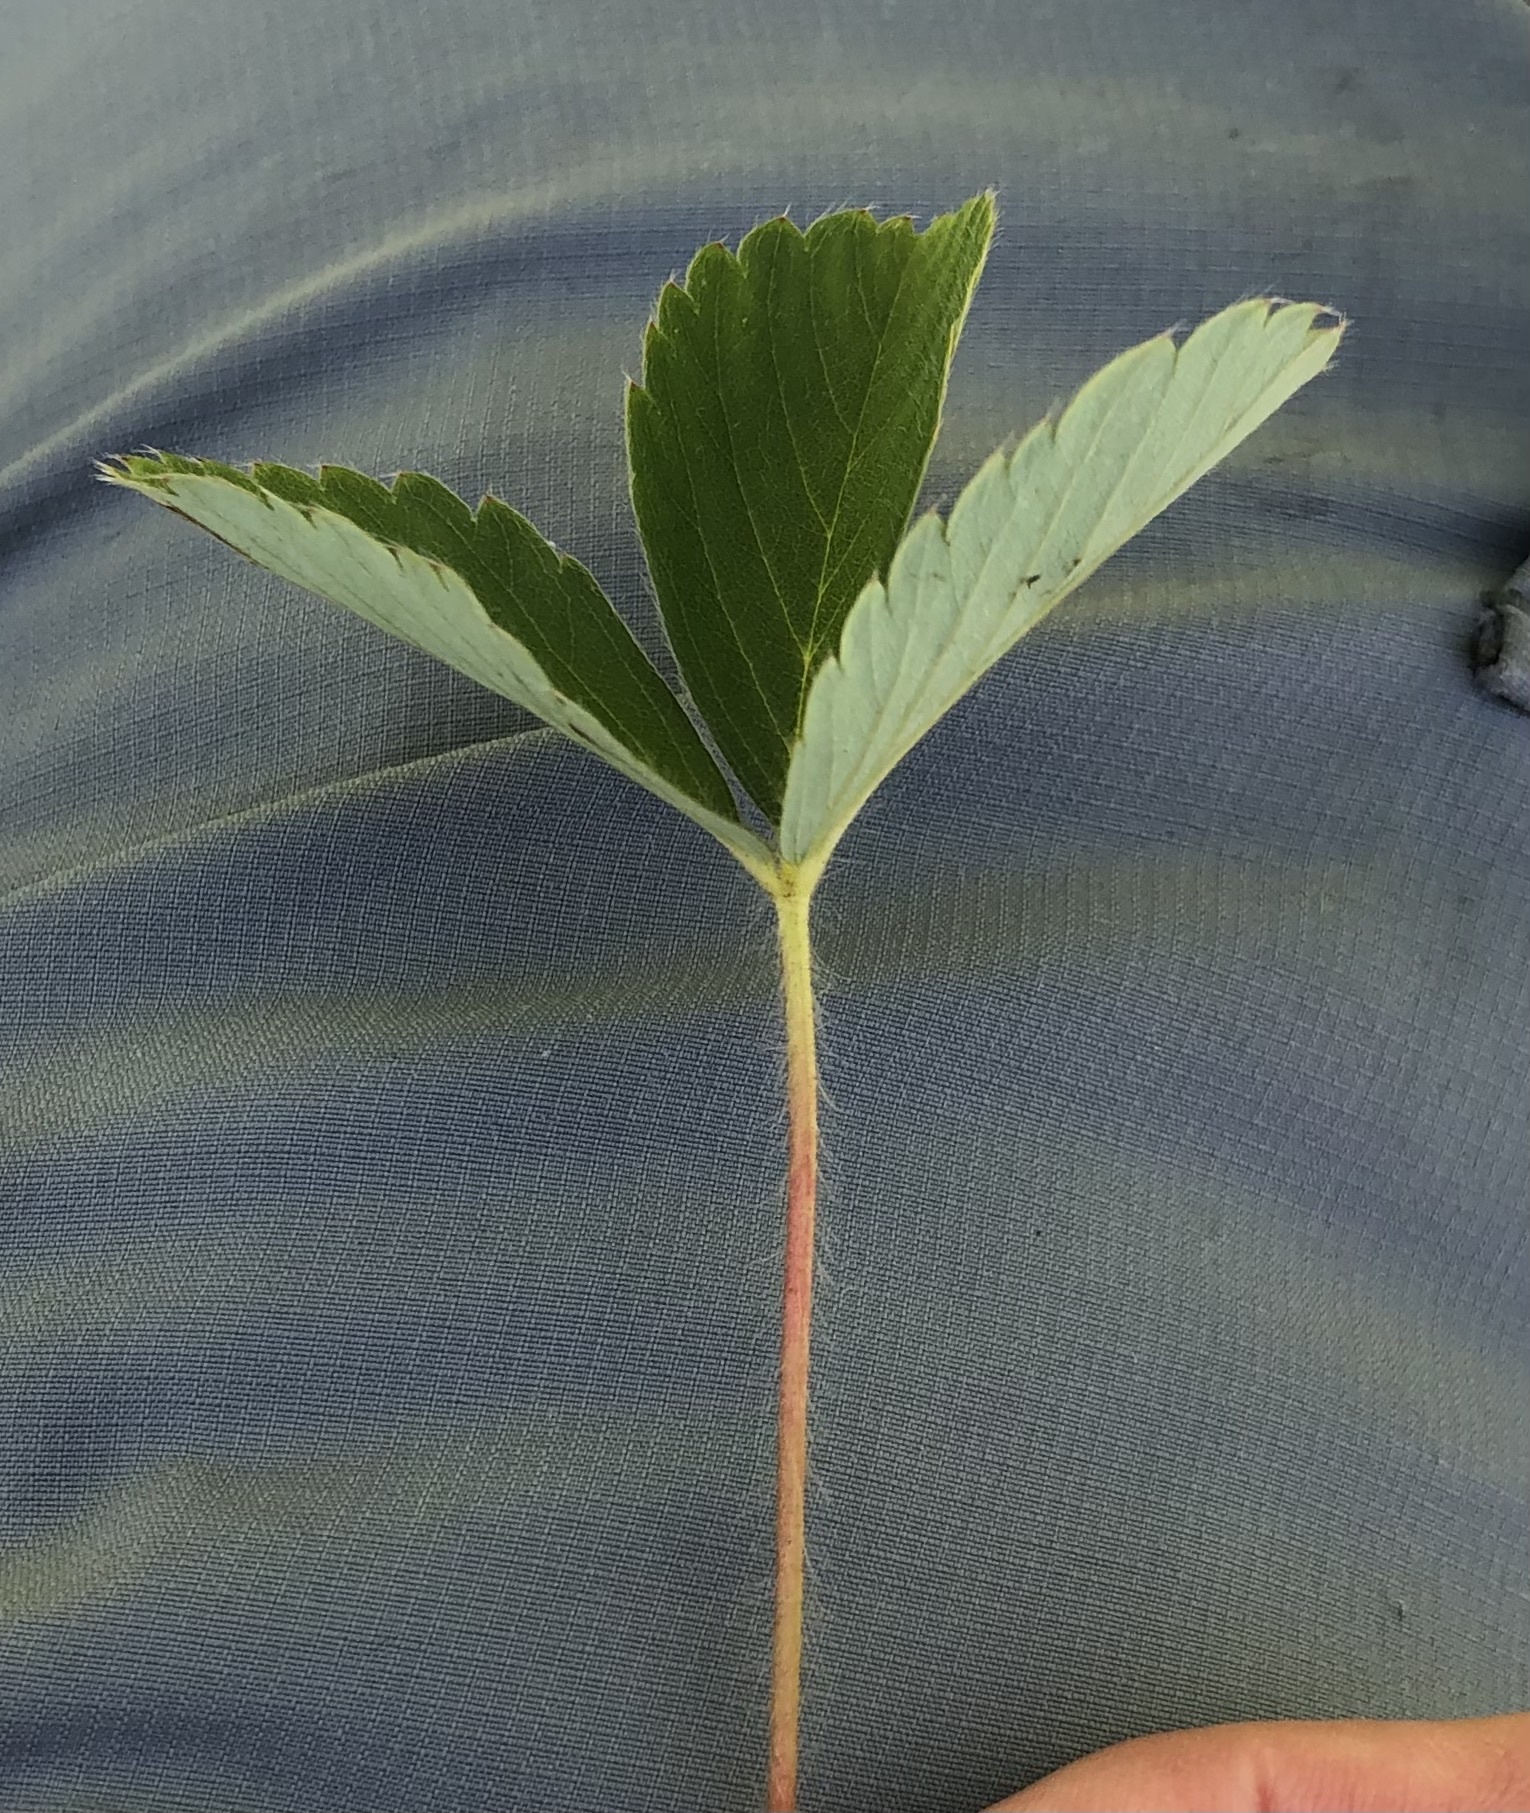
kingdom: Plantae
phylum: Tracheophyta
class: Magnoliopsida
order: Rosales
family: Rosaceae
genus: Fragaria
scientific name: Fragaria virginiana
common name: Thickleaved wild strawberry
